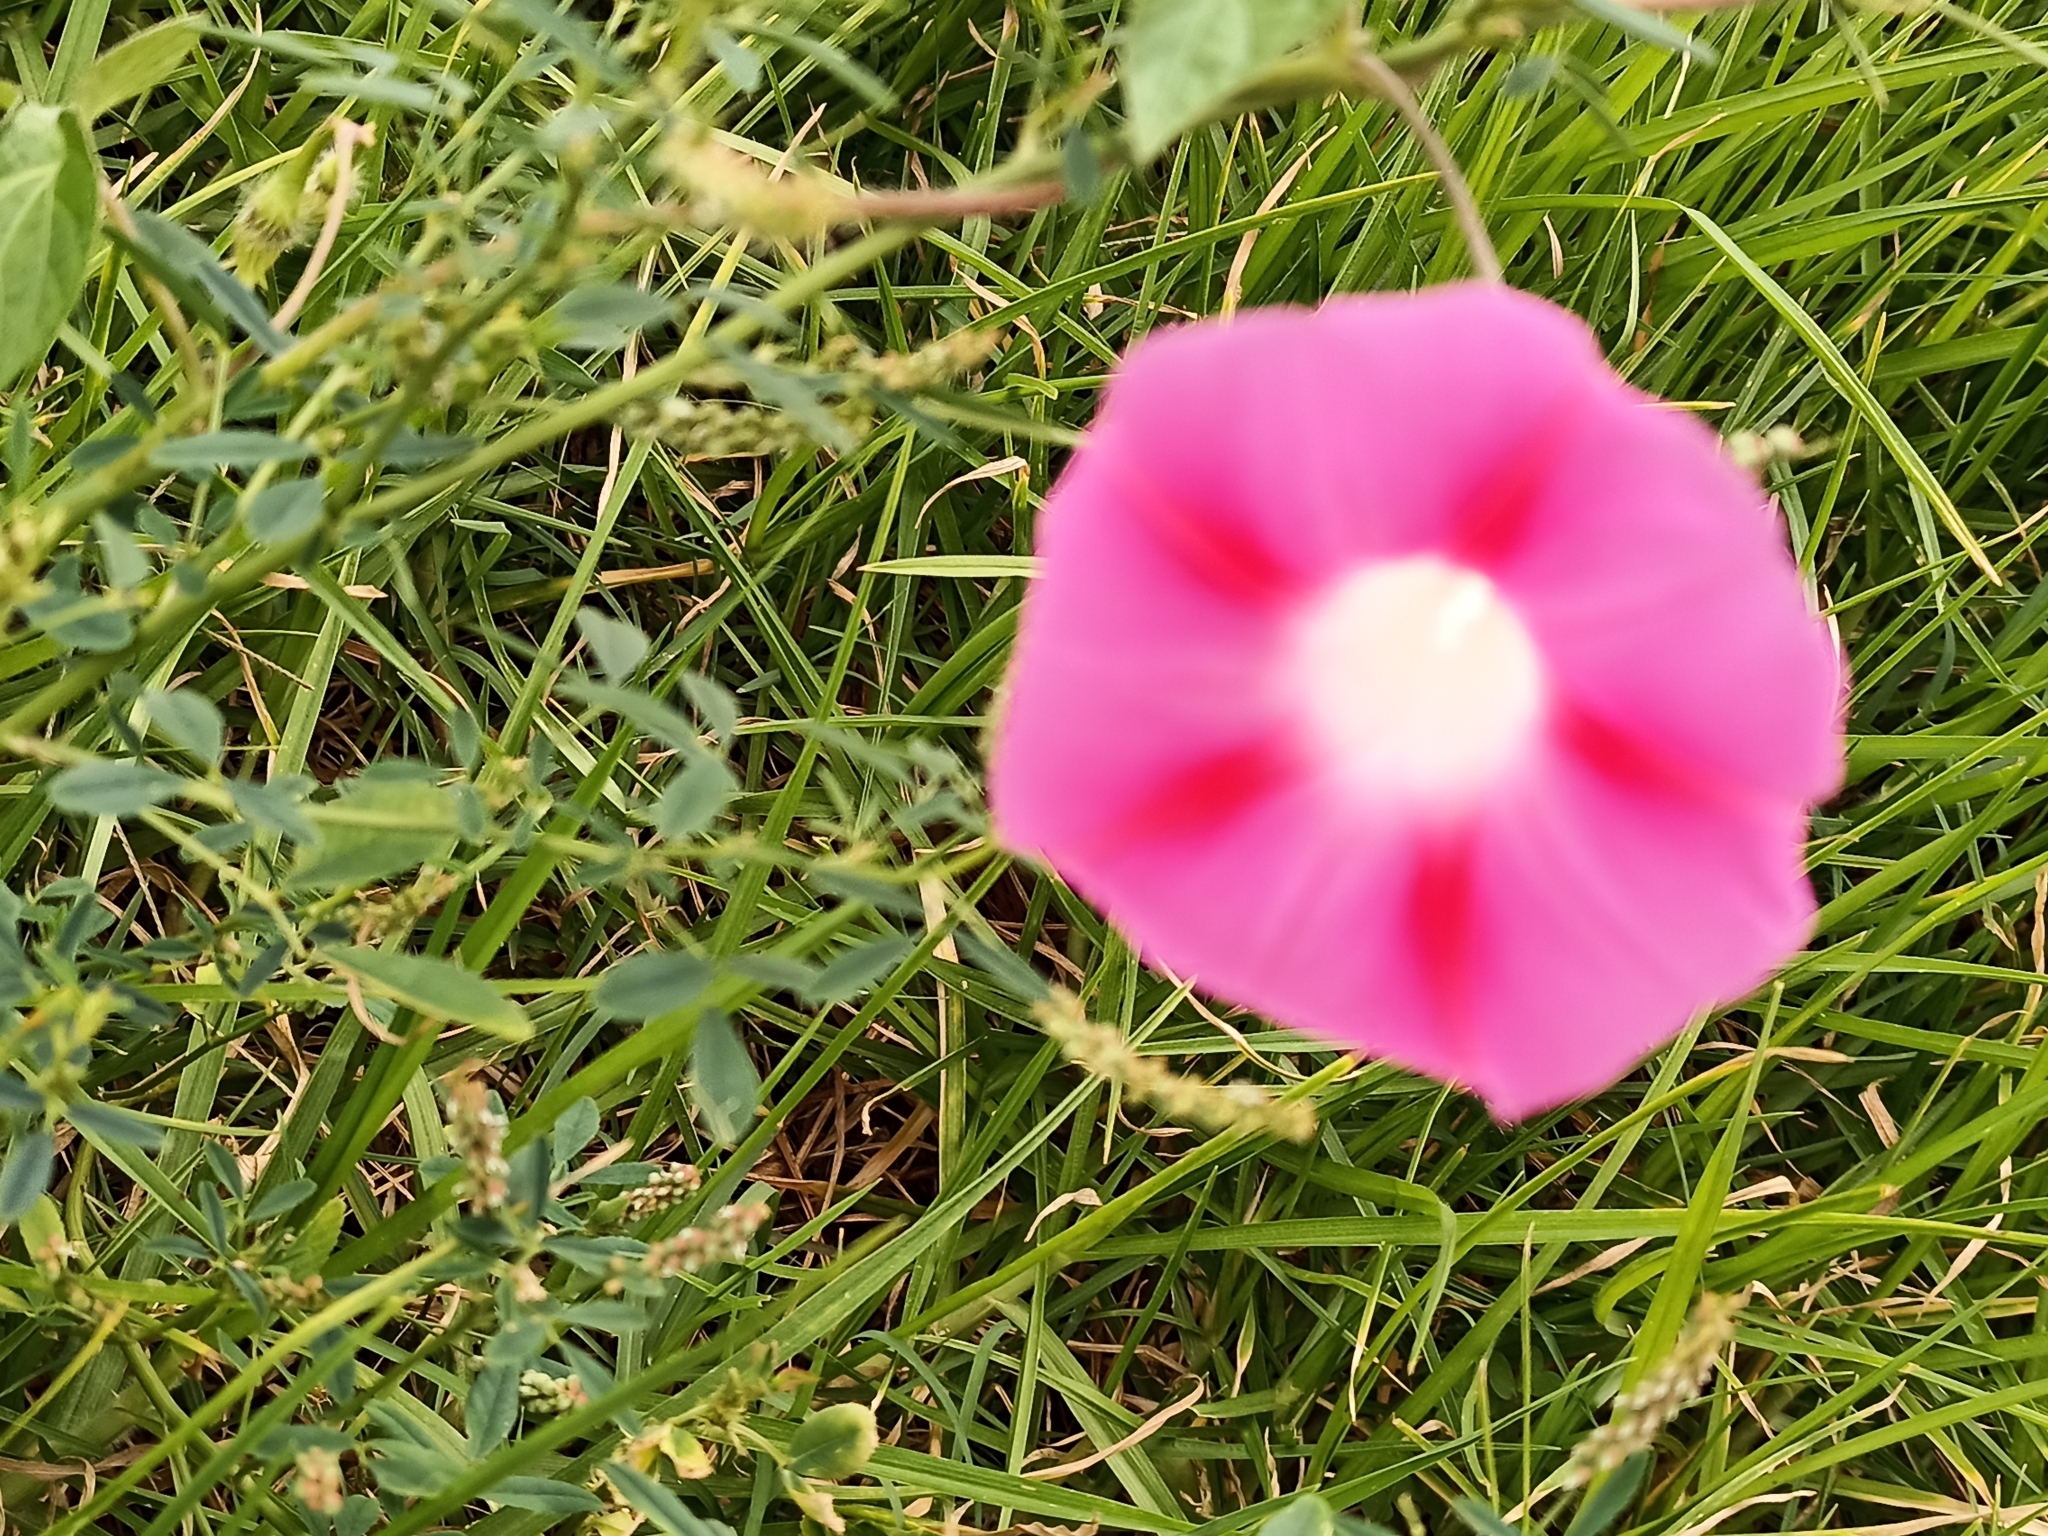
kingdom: Plantae
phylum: Tracheophyta
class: Magnoliopsida
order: Solanales
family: Convolvulaceae
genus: Ipomoea
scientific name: Ipomoea purpurea
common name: Common morning-glory
